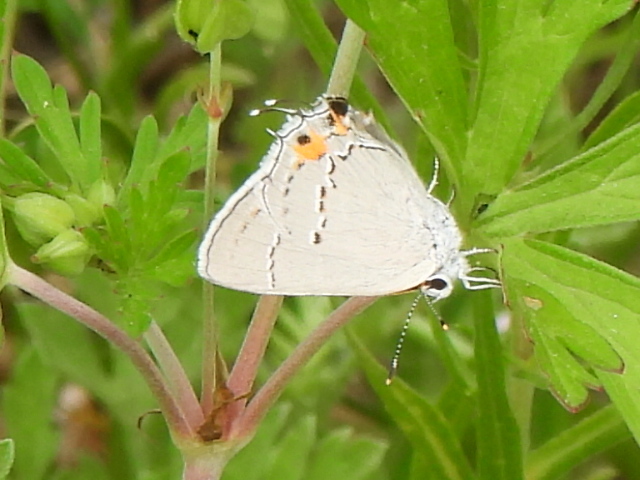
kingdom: Animalia
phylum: Arthropoda
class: Insecta
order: Lepidoptera
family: Lycaenidae
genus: Strymon
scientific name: Strymon melinus
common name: Gray hairstreak
